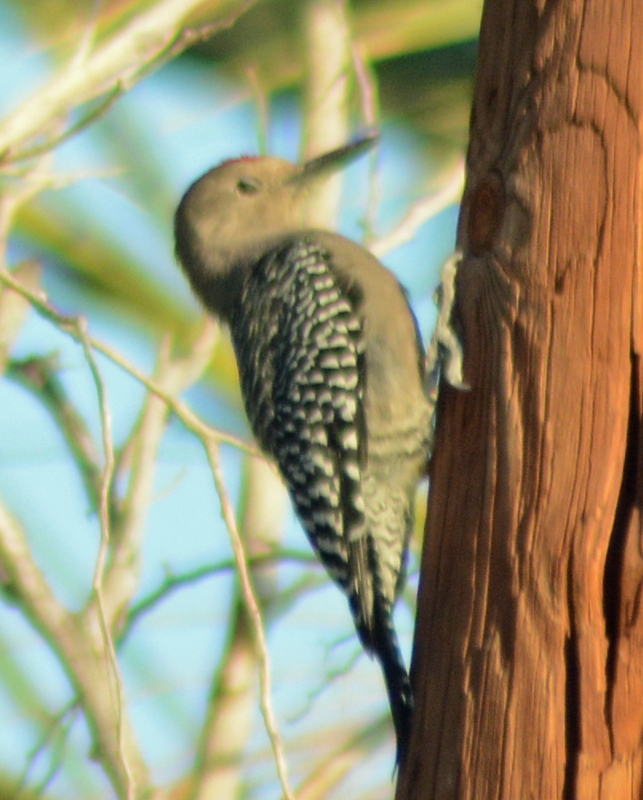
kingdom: Animalia
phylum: Chordata
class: Aves
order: Piciformes
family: Picidae
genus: Melanerpes
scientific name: Melanerpes uropygialis
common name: Gila woodpecker
